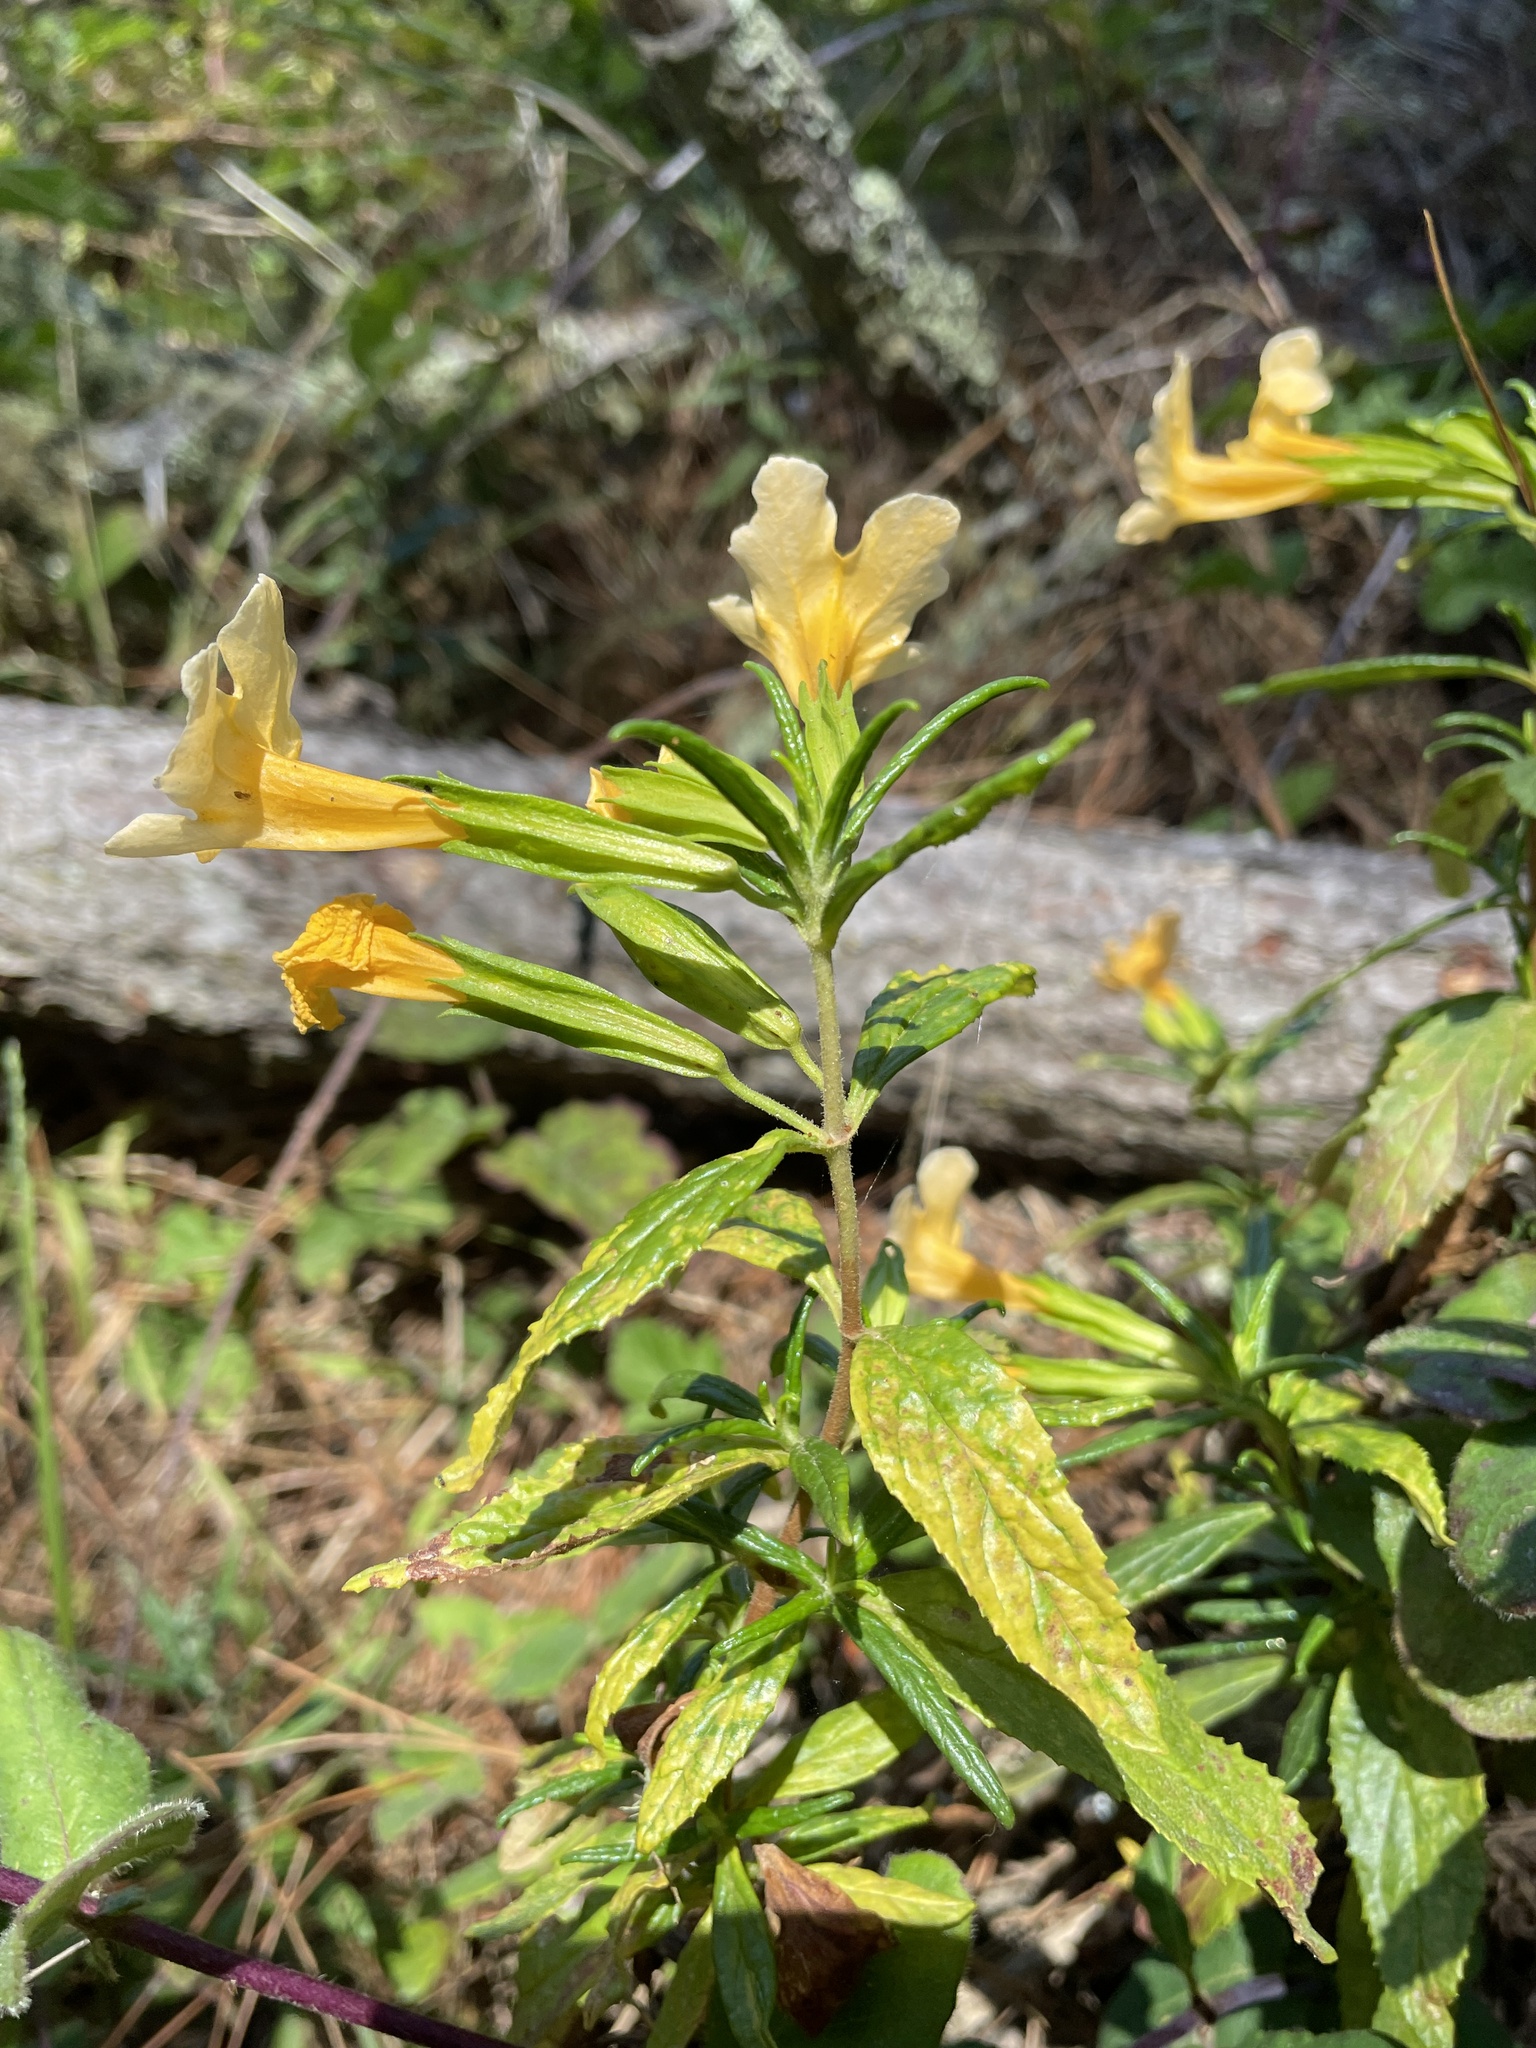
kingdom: Plantae
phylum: Tracheophyta
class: Magnoliopsida
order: Lamiales
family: Phrymaceae
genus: Diplacus
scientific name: Diplacus aurantiacus
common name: Bush monkey-flower
